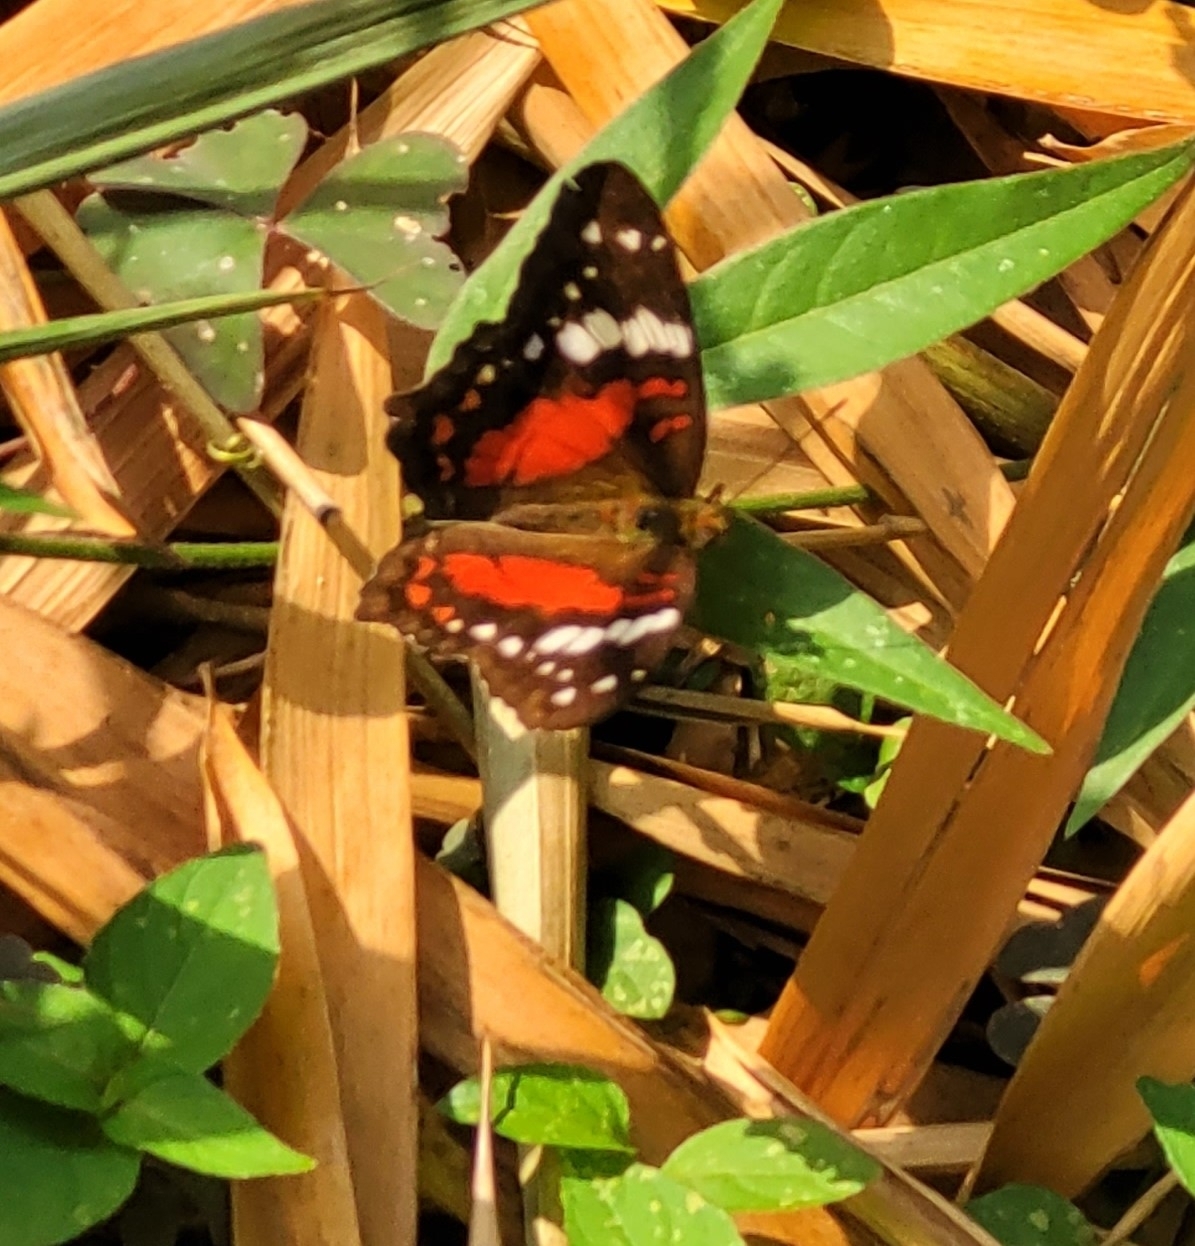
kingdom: Animalia
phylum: Arthropoda
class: Insecta
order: Lepidoptera
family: Nymphalidae
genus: Anartia
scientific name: Anartia amathea
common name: Red peacock
